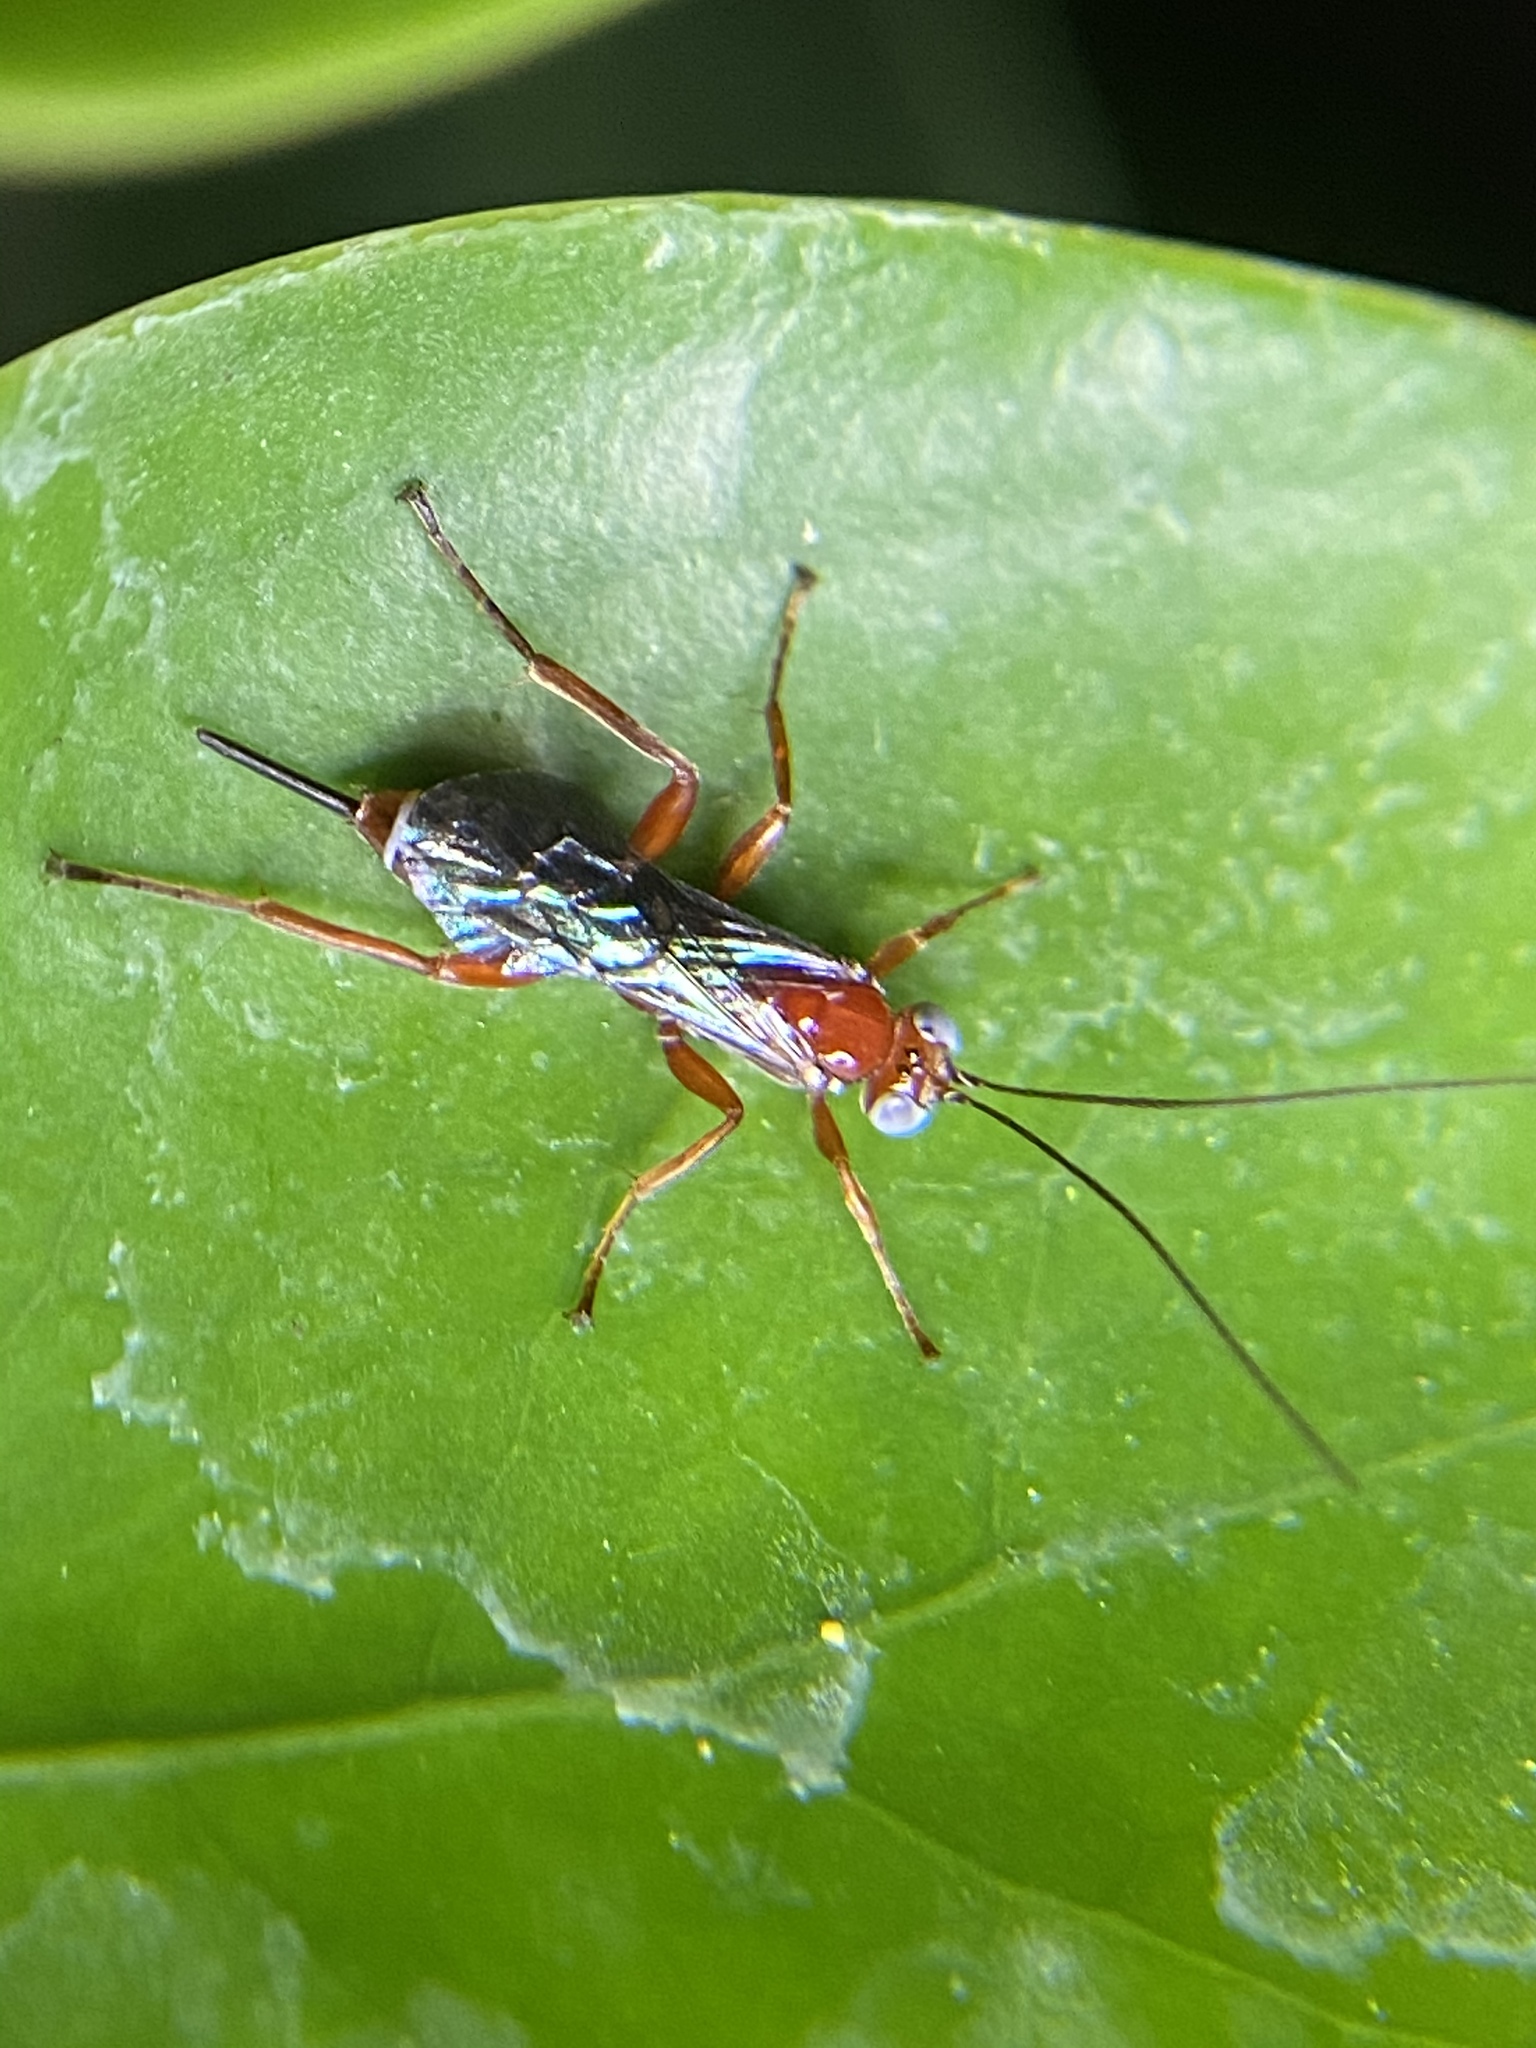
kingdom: Animalia
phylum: Arthropoda
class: Insecta
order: Hymenoptera
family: Ichneumonidae
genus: Pimpla
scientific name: Pimpla marginella
